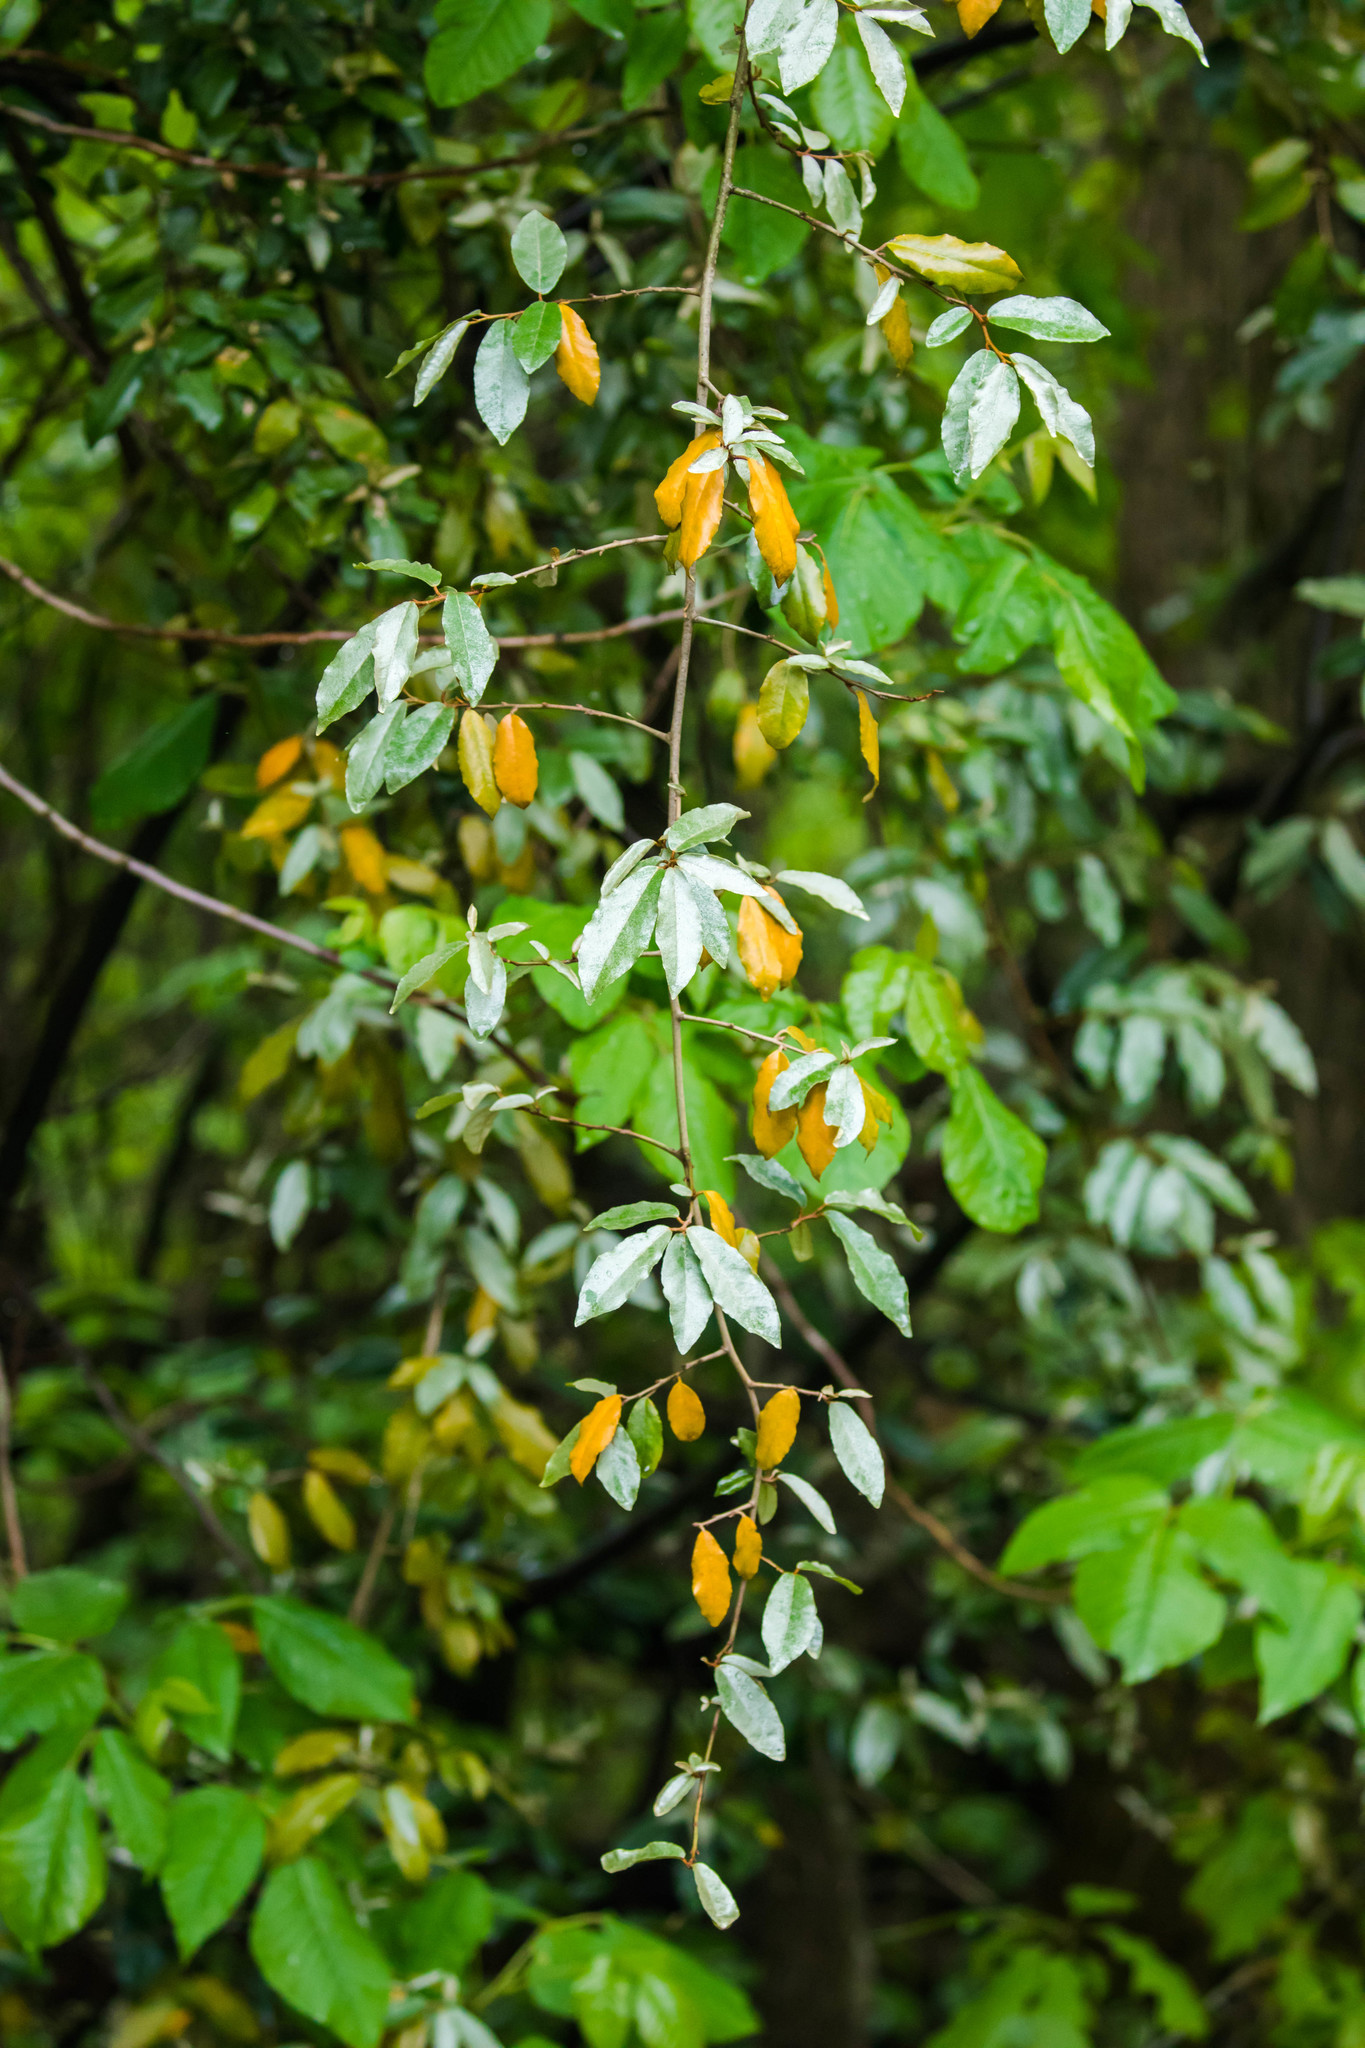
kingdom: Plantae
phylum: Tracheophyta
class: Magnoliopsida
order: Rosales
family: Elaeagnaceae
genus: Elaeagnus
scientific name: Elaeagnus pungens
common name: Spiny oleaster
